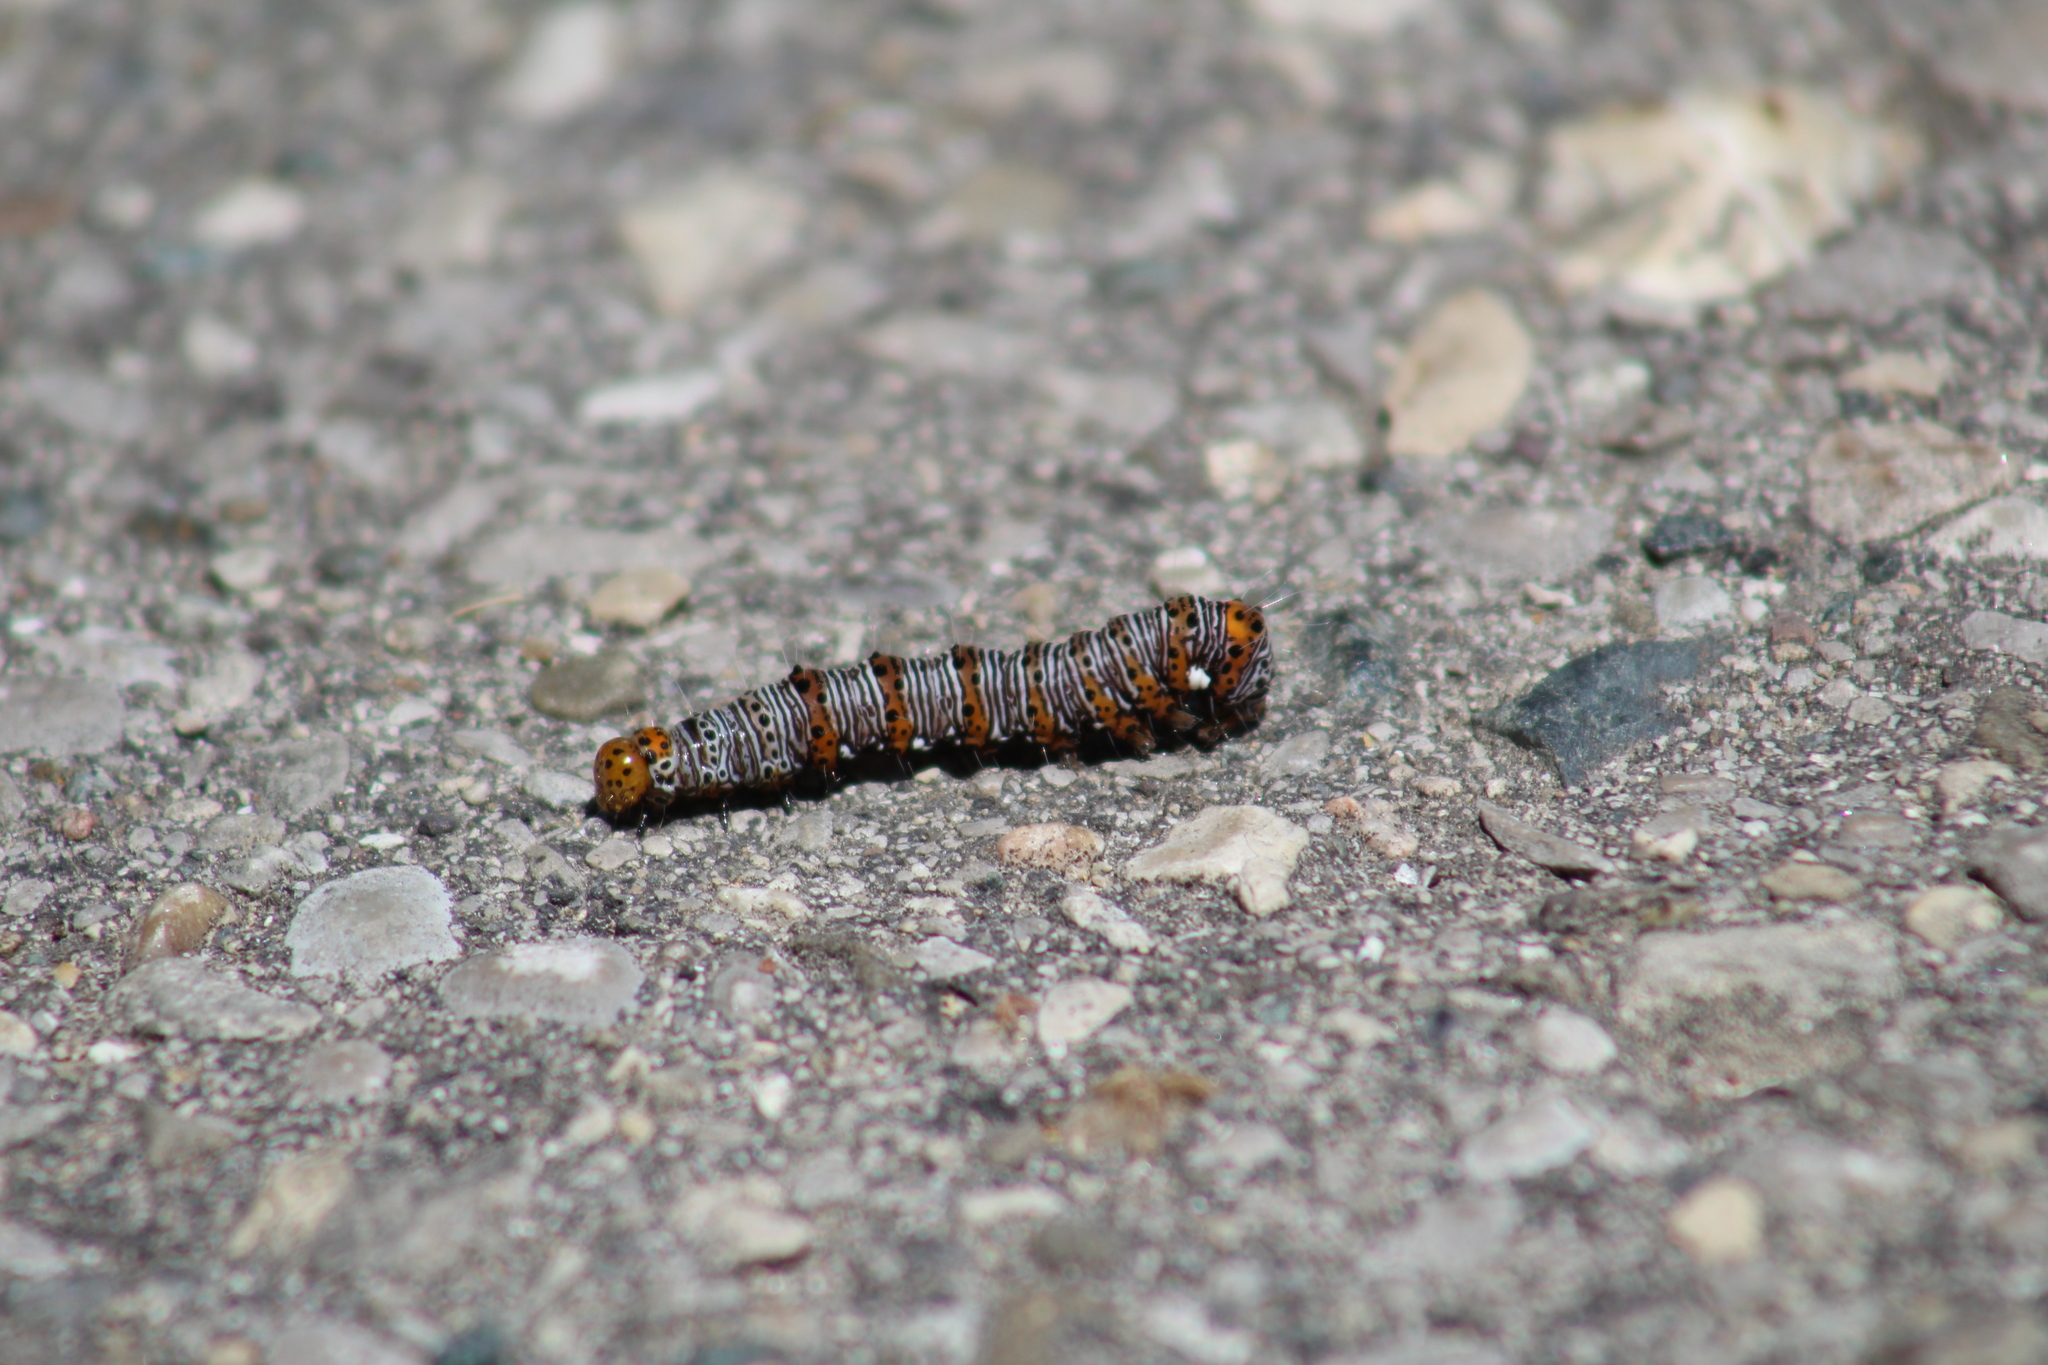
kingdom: Animalia
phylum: Arthropoda
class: Insecta
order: Lepidoptera
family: Noctuidae
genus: Alypia
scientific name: Alypia octomaculata
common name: Eight-spotted forester
